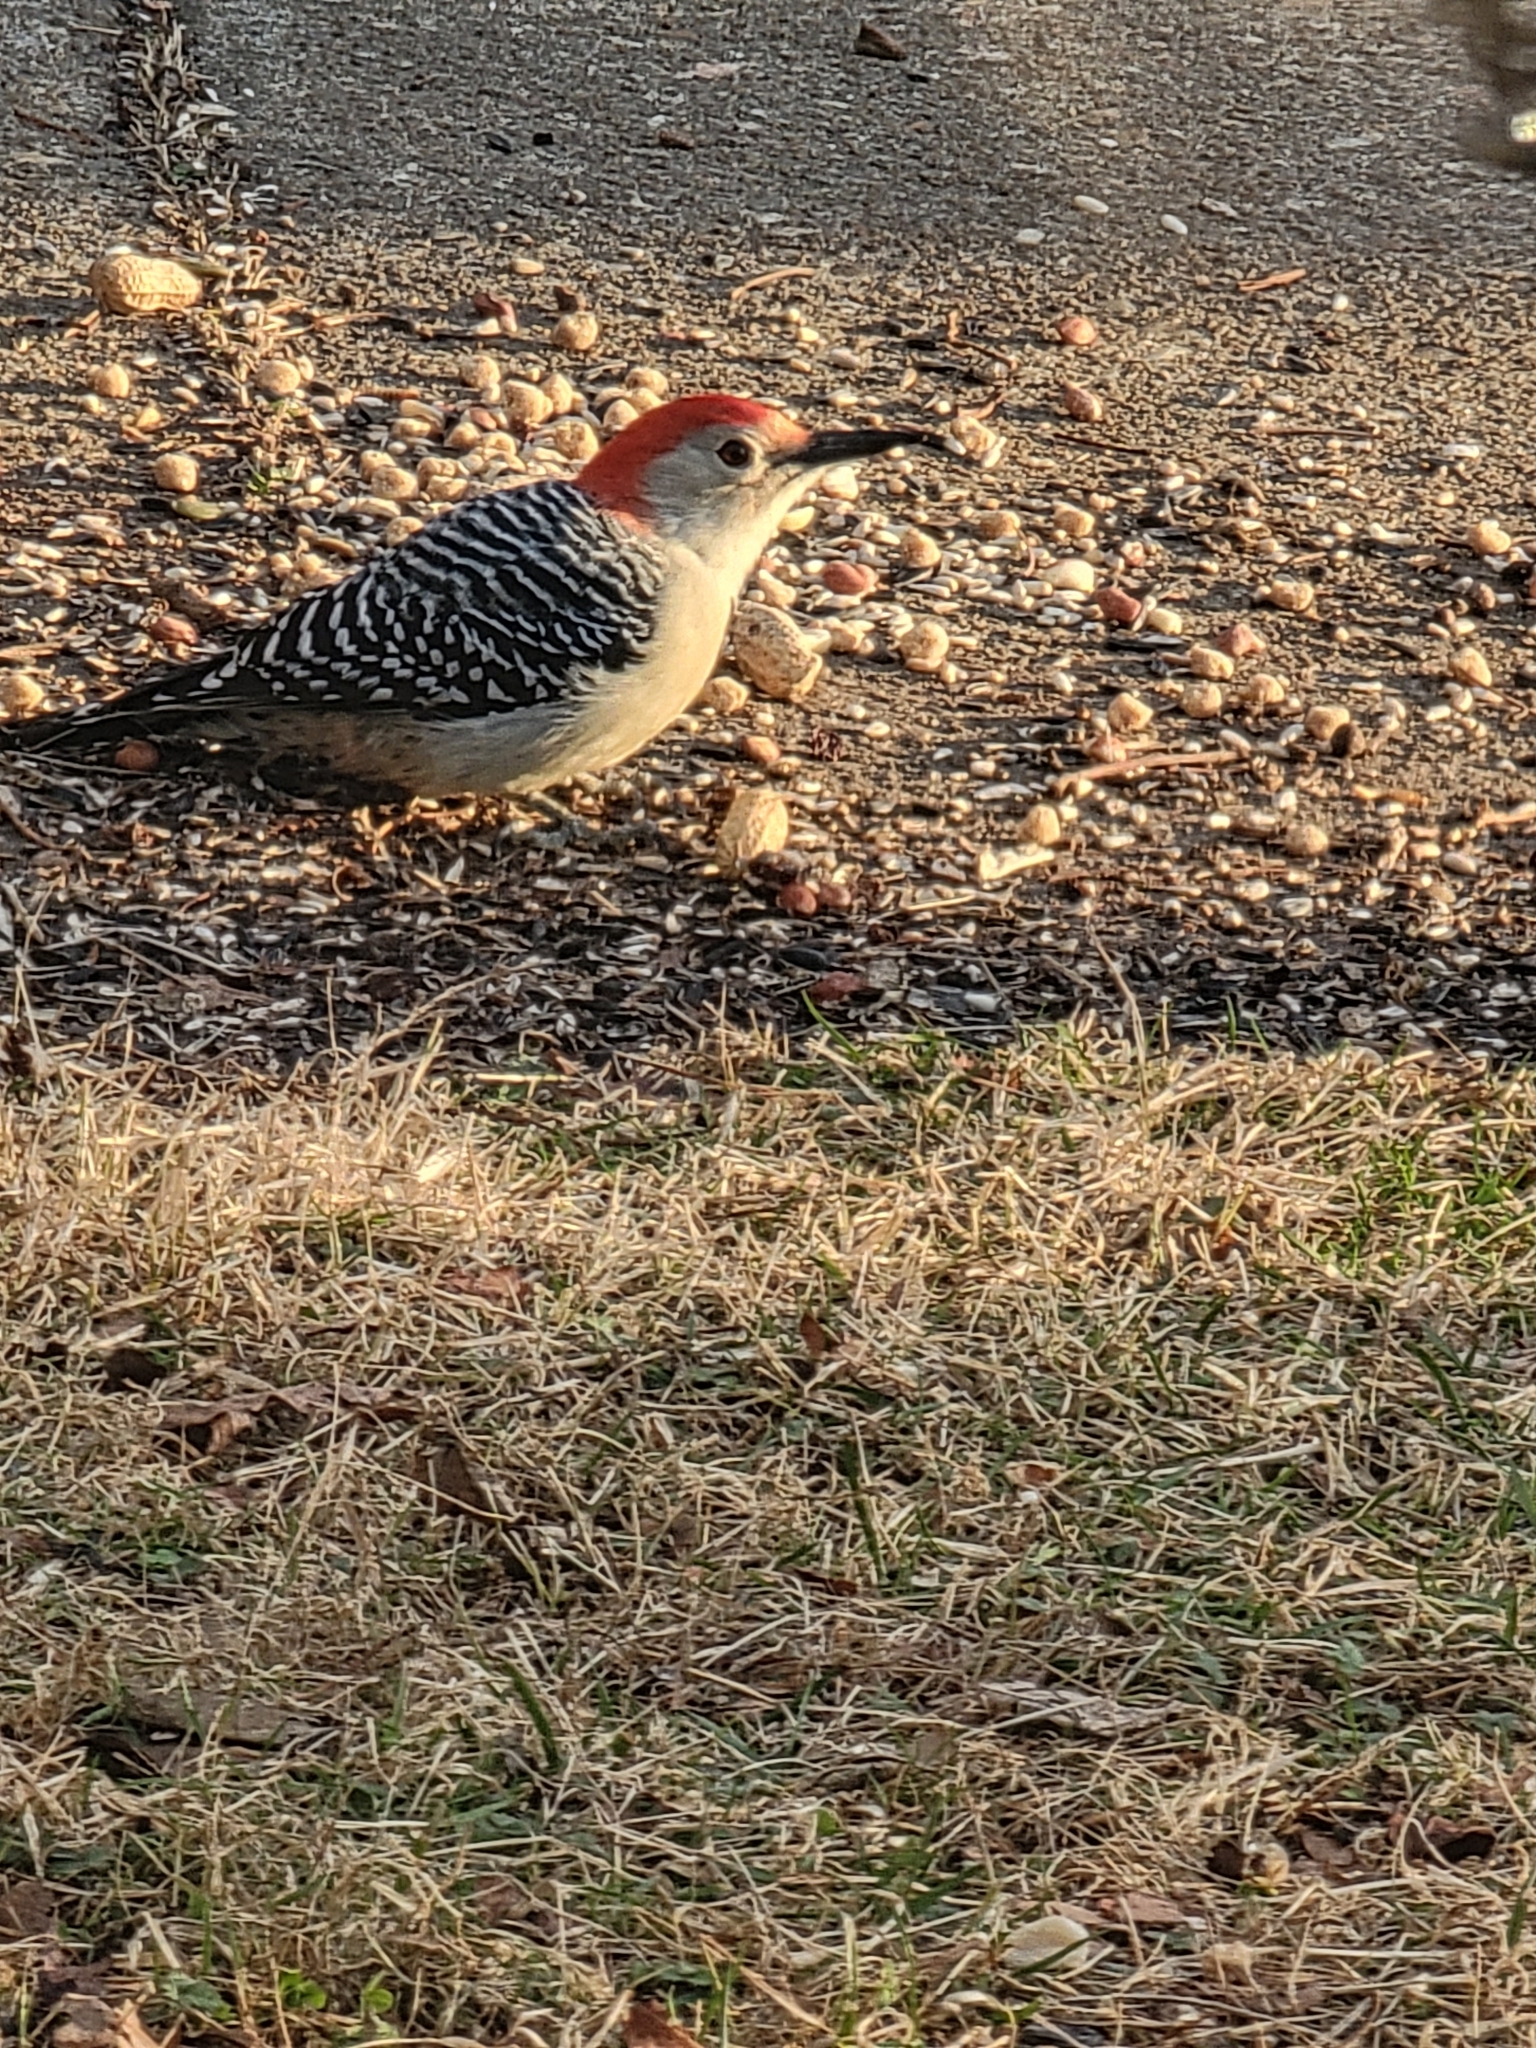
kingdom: Animalia
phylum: Chordata
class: Aves
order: Piciformes
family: Picidae
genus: Melanerpes
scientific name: Melanerpes carolinus
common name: Red-bellied woodpecker
